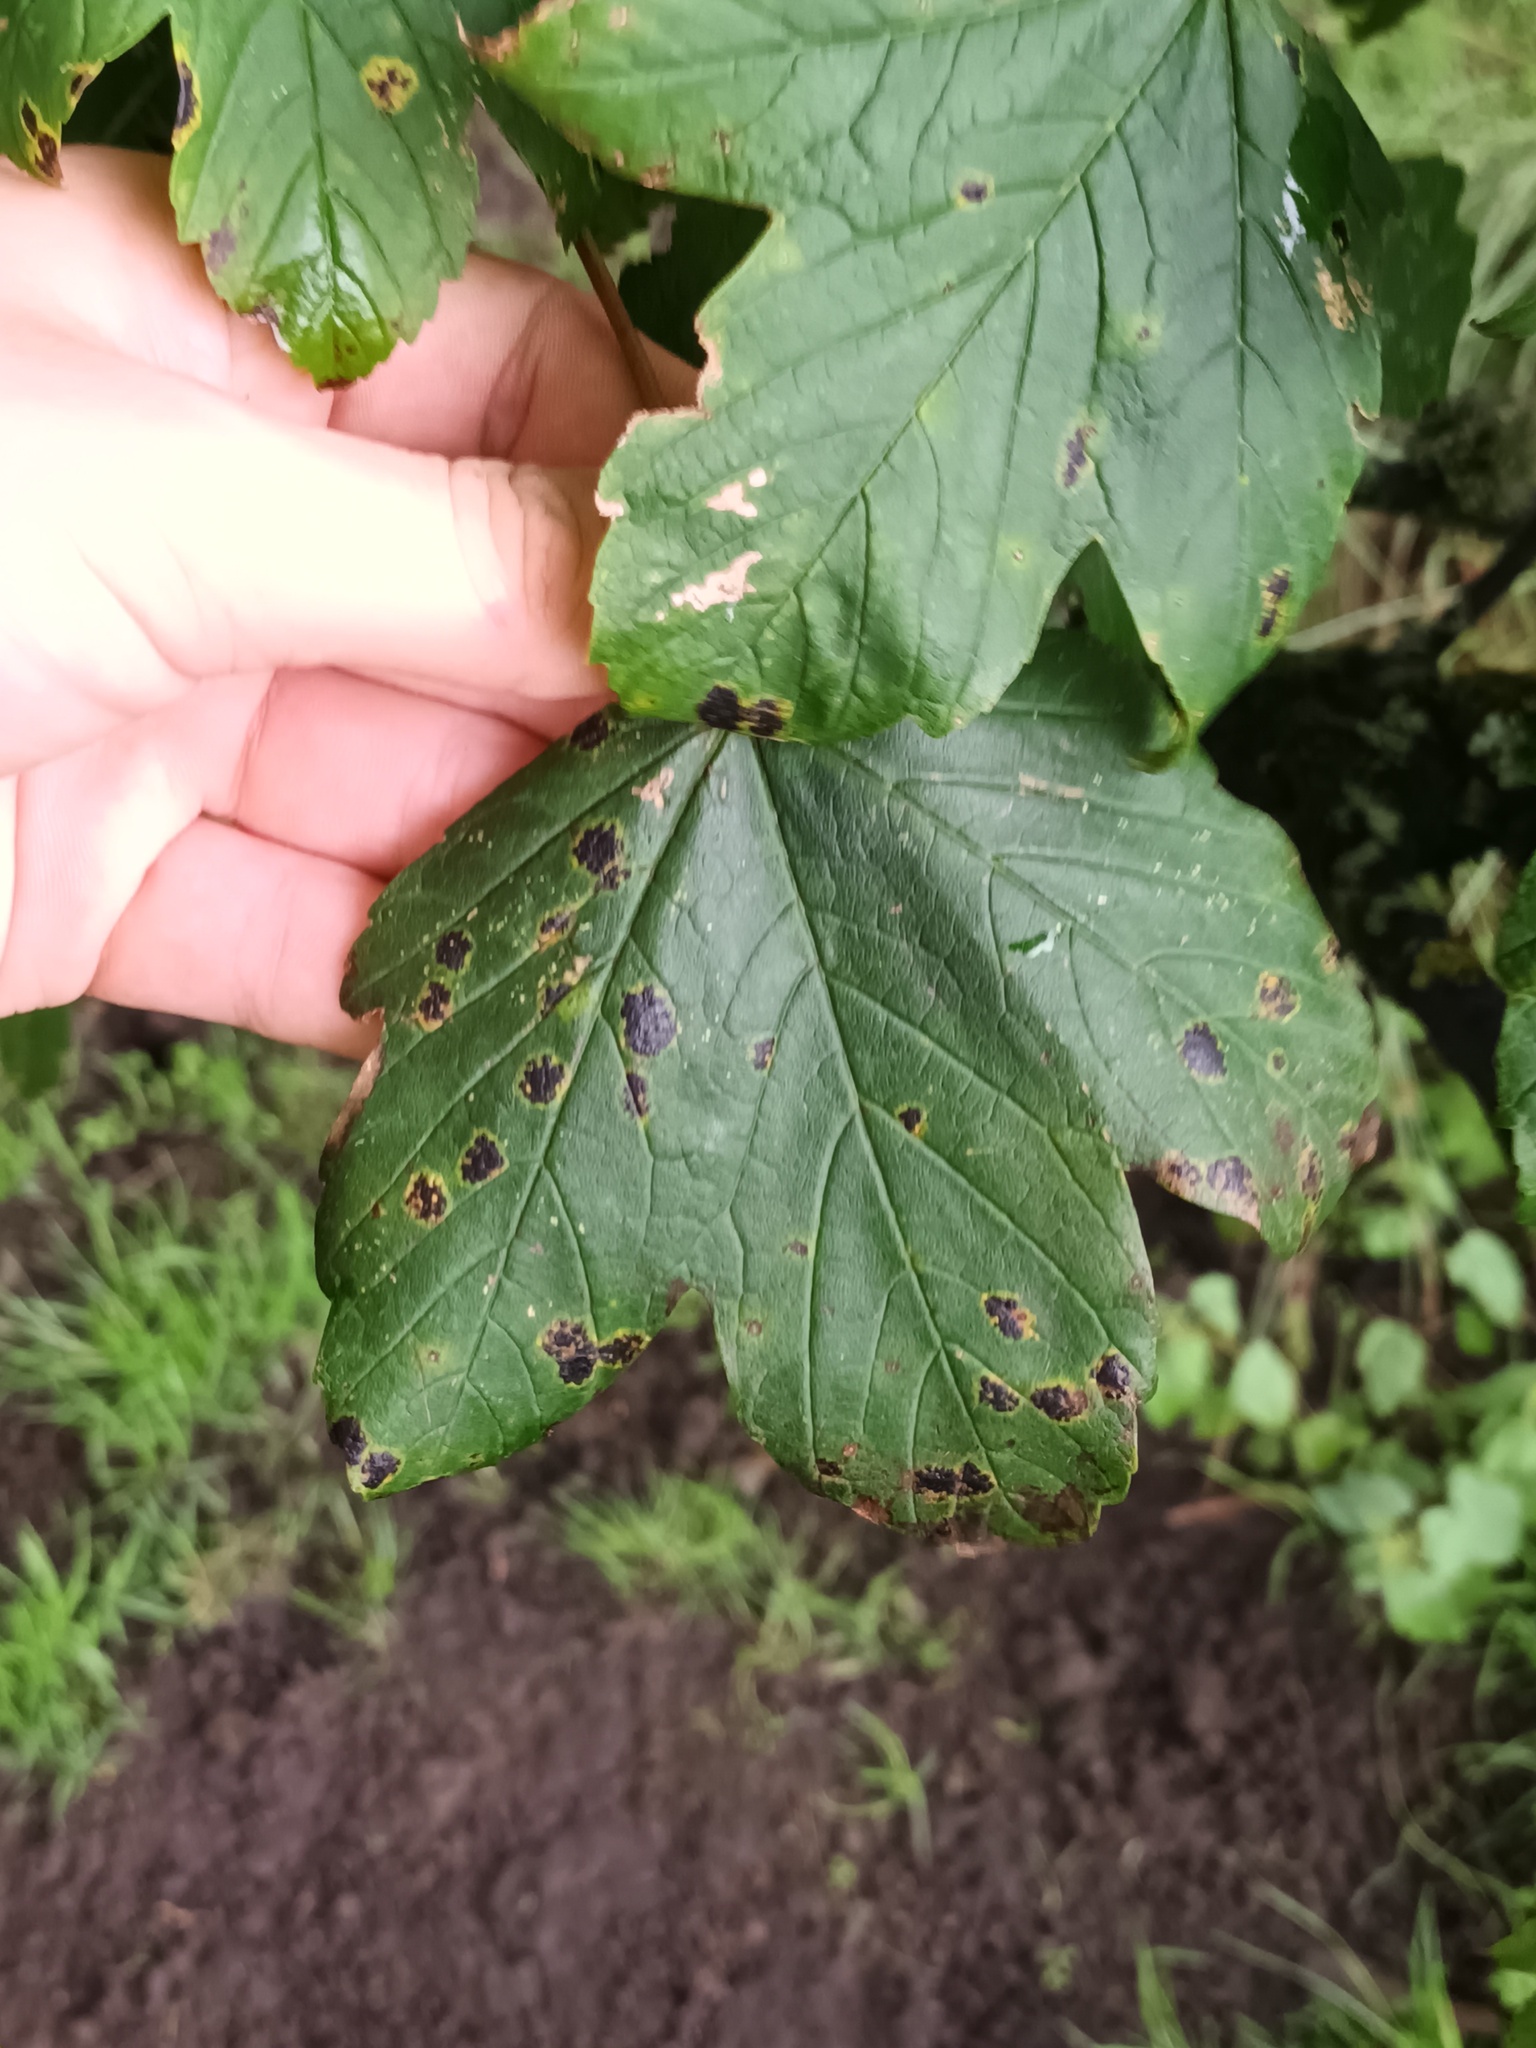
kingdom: Fungi
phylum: Ascomycota
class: Leotiomycetes
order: Rhytismatales
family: Rhytismataceae
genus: Rhytisma
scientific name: Rhytisma acerinum
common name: European tar spot
